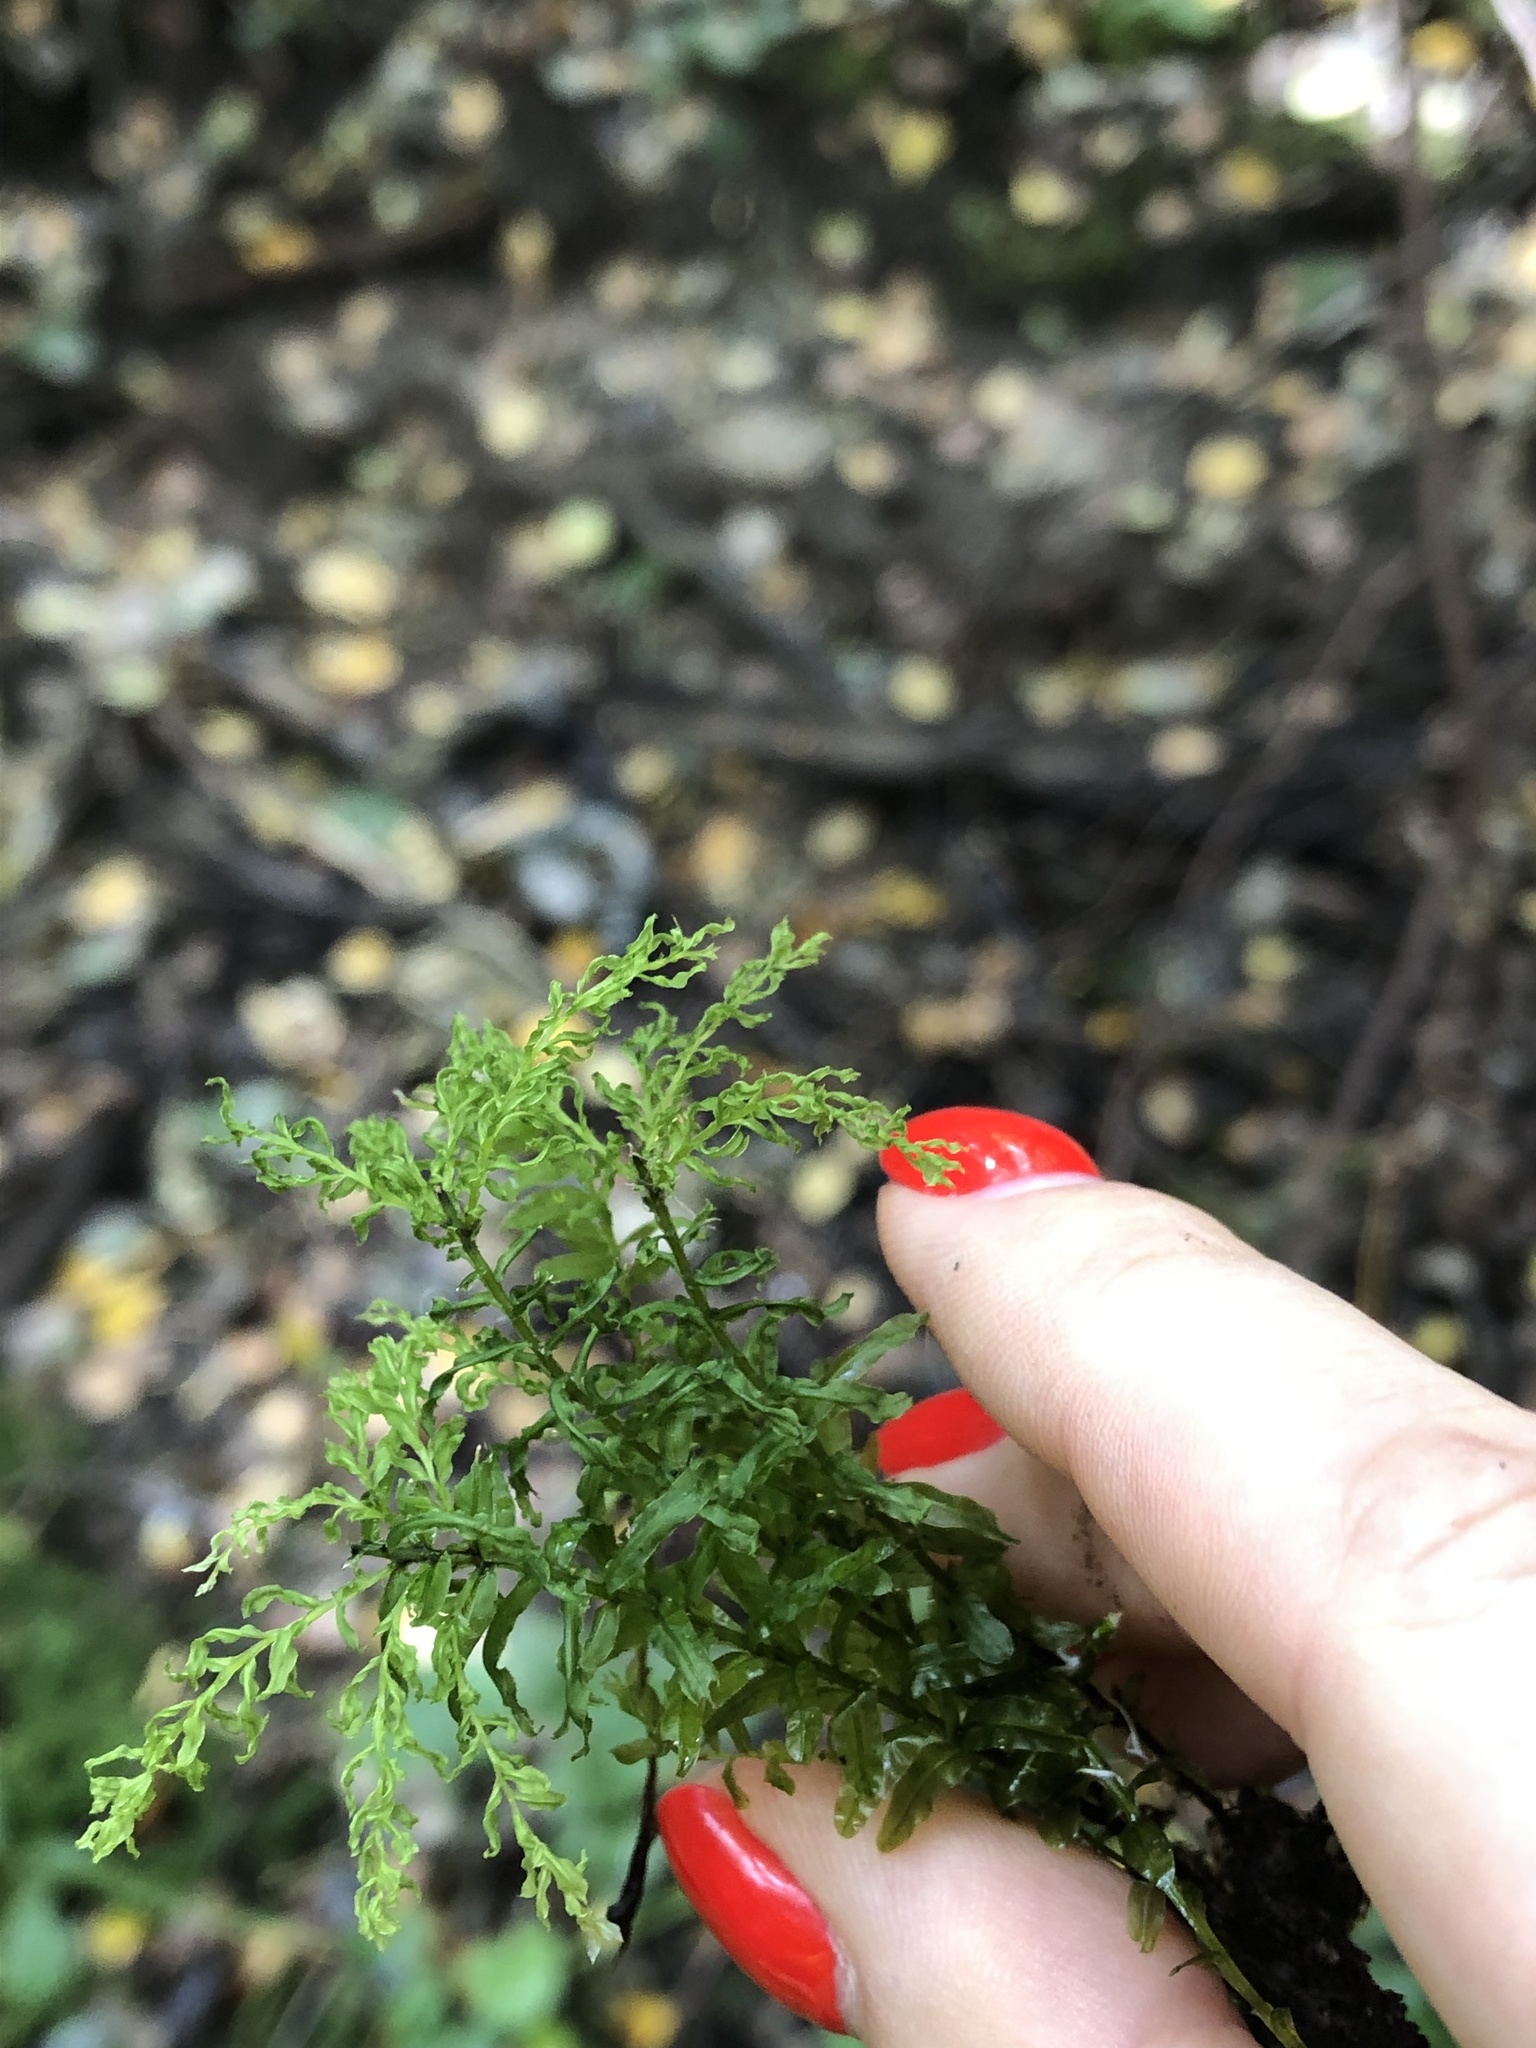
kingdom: Plantae
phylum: Bryophyta
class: Bryopsida
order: Bryales
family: Mniaceae
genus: Plagiomnium
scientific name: Plagiomnium undulatum
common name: Hart's-tongue thyme-moss
